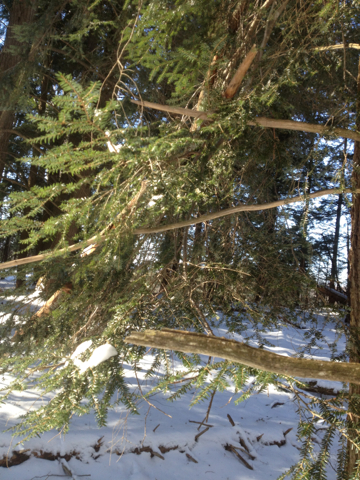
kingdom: Plantae
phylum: Tracheophyta
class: Pinopsida
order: Pinales
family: Pinaceae
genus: Tsuga
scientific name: Tsuga canadensis
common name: Eastern hemlock
